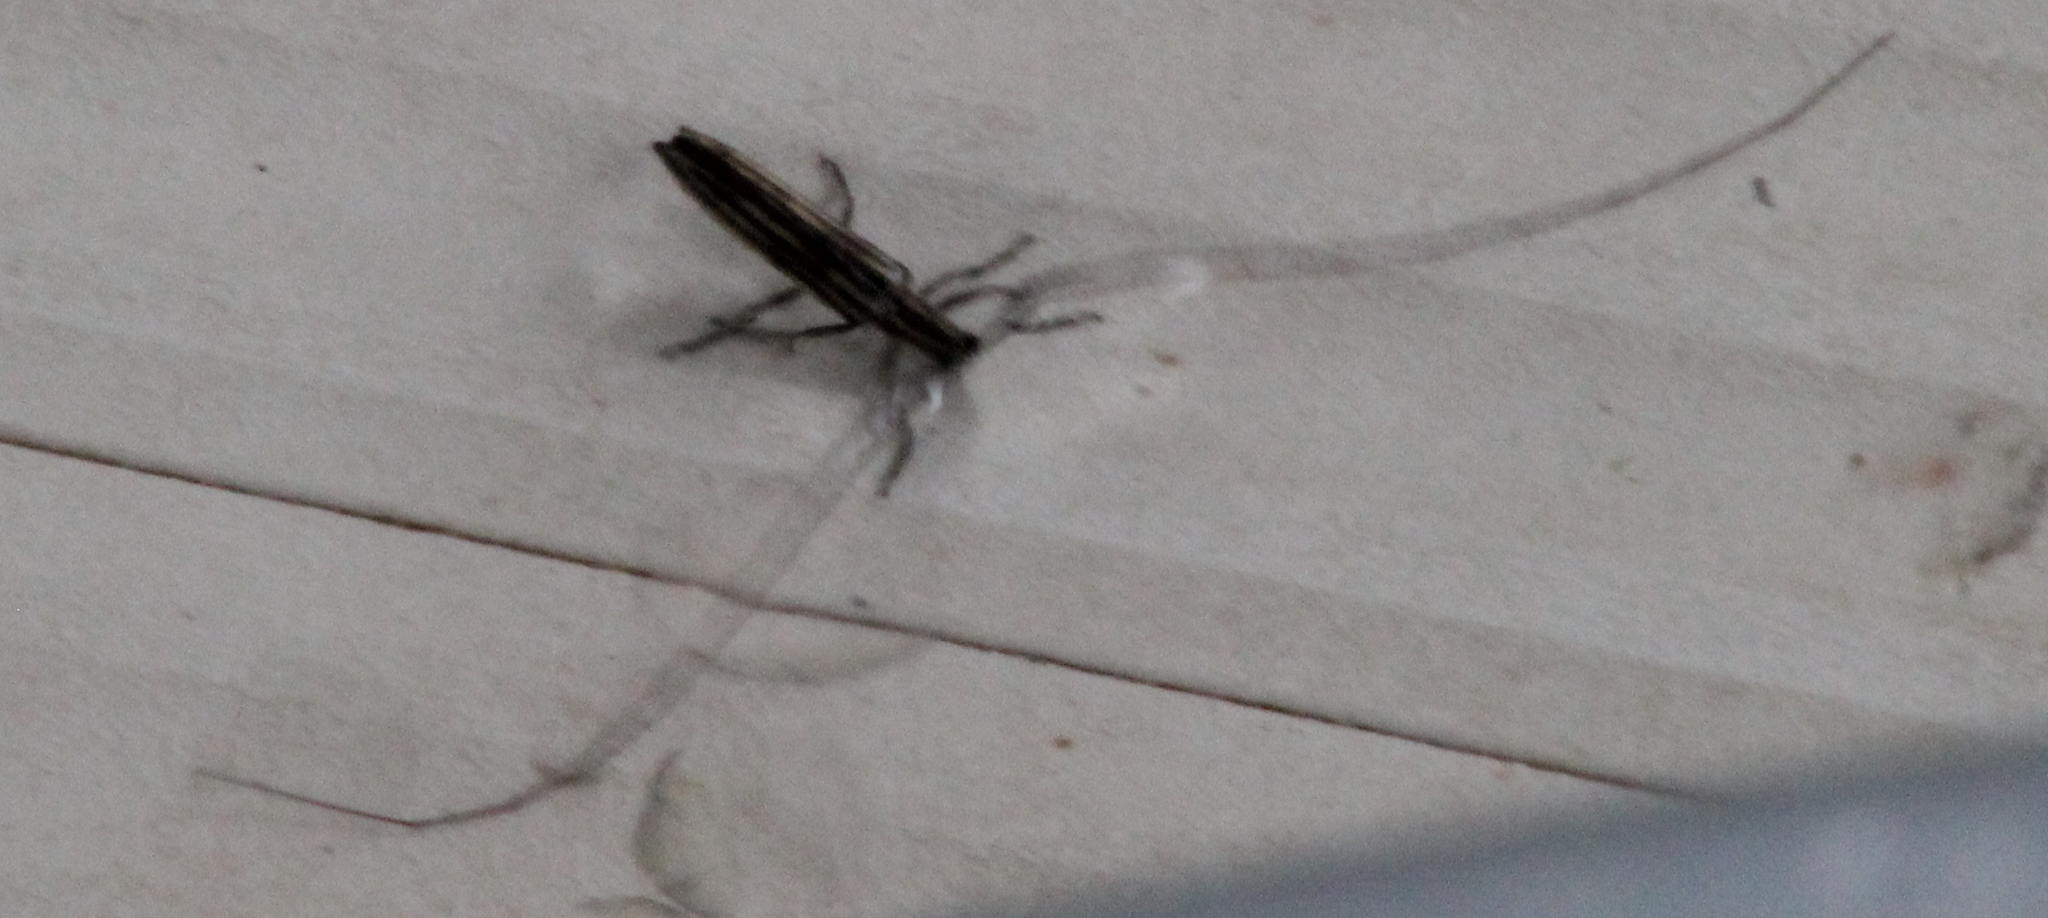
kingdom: Animalia
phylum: Arthropoda
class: Insecta
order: Coleoptera
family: Cerambycidae
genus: Hippopsis
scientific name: Hippopsis
